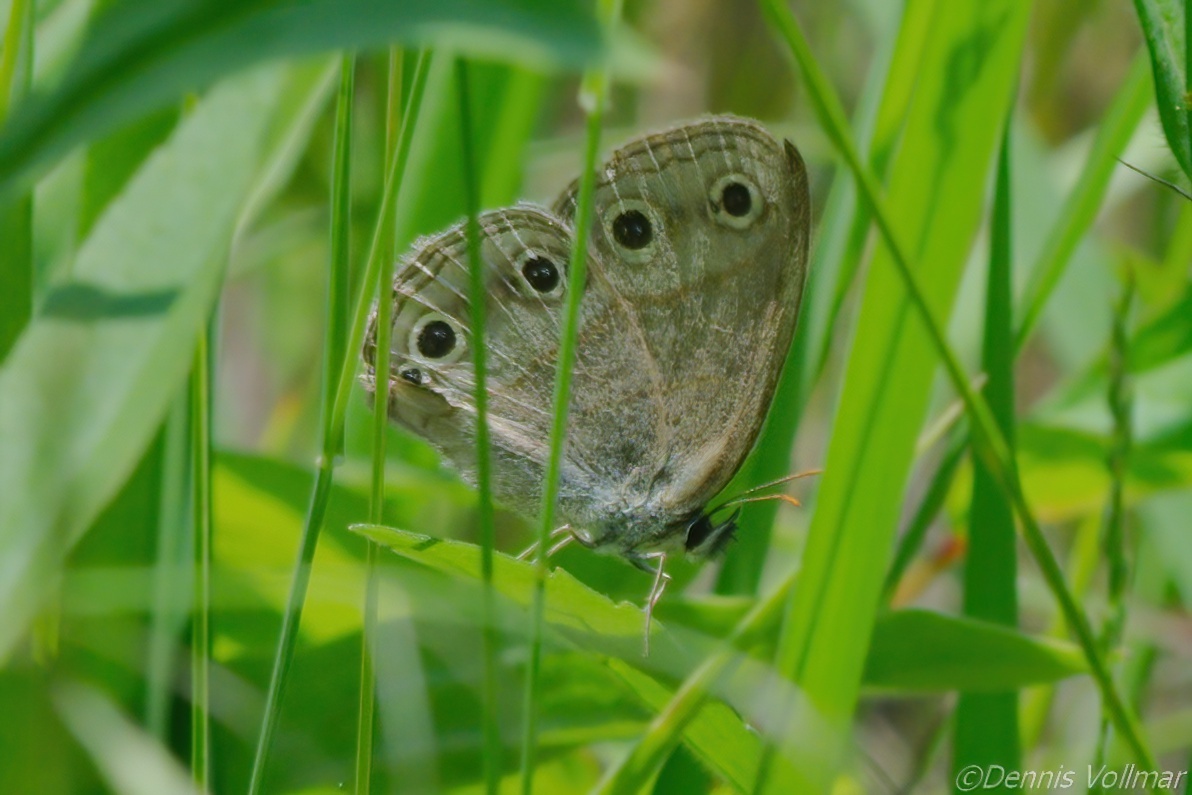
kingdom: Animalia
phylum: Arthropoda
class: Insecta
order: Lepidoptera
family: Nymphalidae
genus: Euptychia
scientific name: Euptychia cymela
